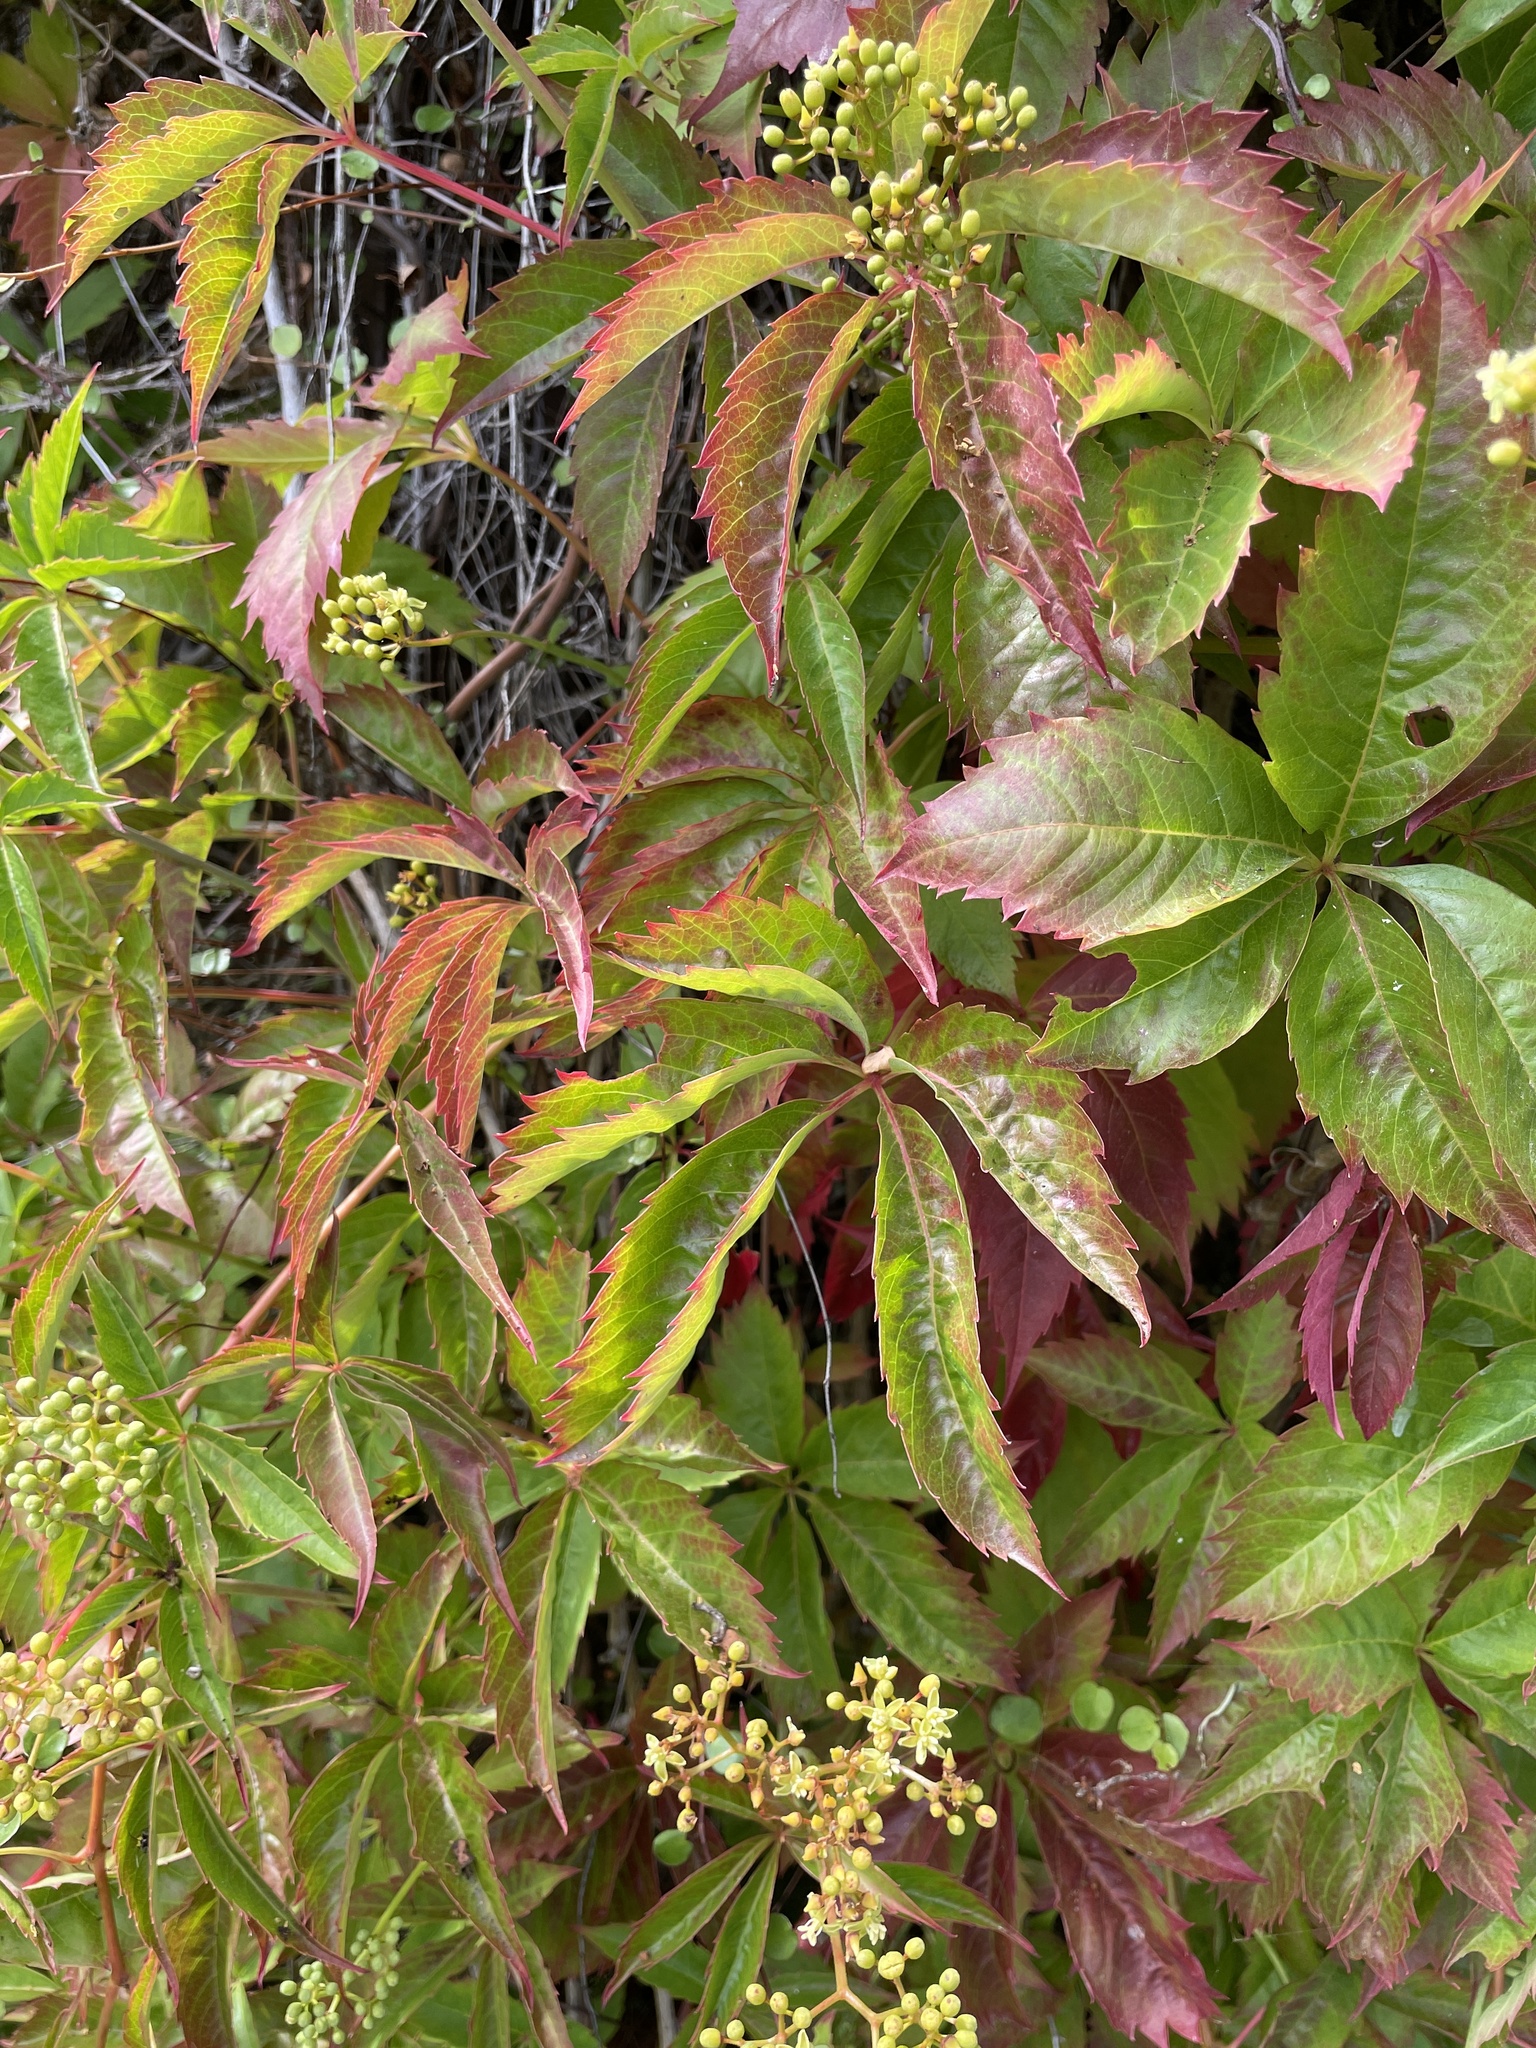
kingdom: Plantae
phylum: Tracheophyta
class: Magnoliopsida
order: Vitales
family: Vitaceae
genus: Parthenocissus
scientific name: Parthenocissus quinquefolia
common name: Virginia-creeper
